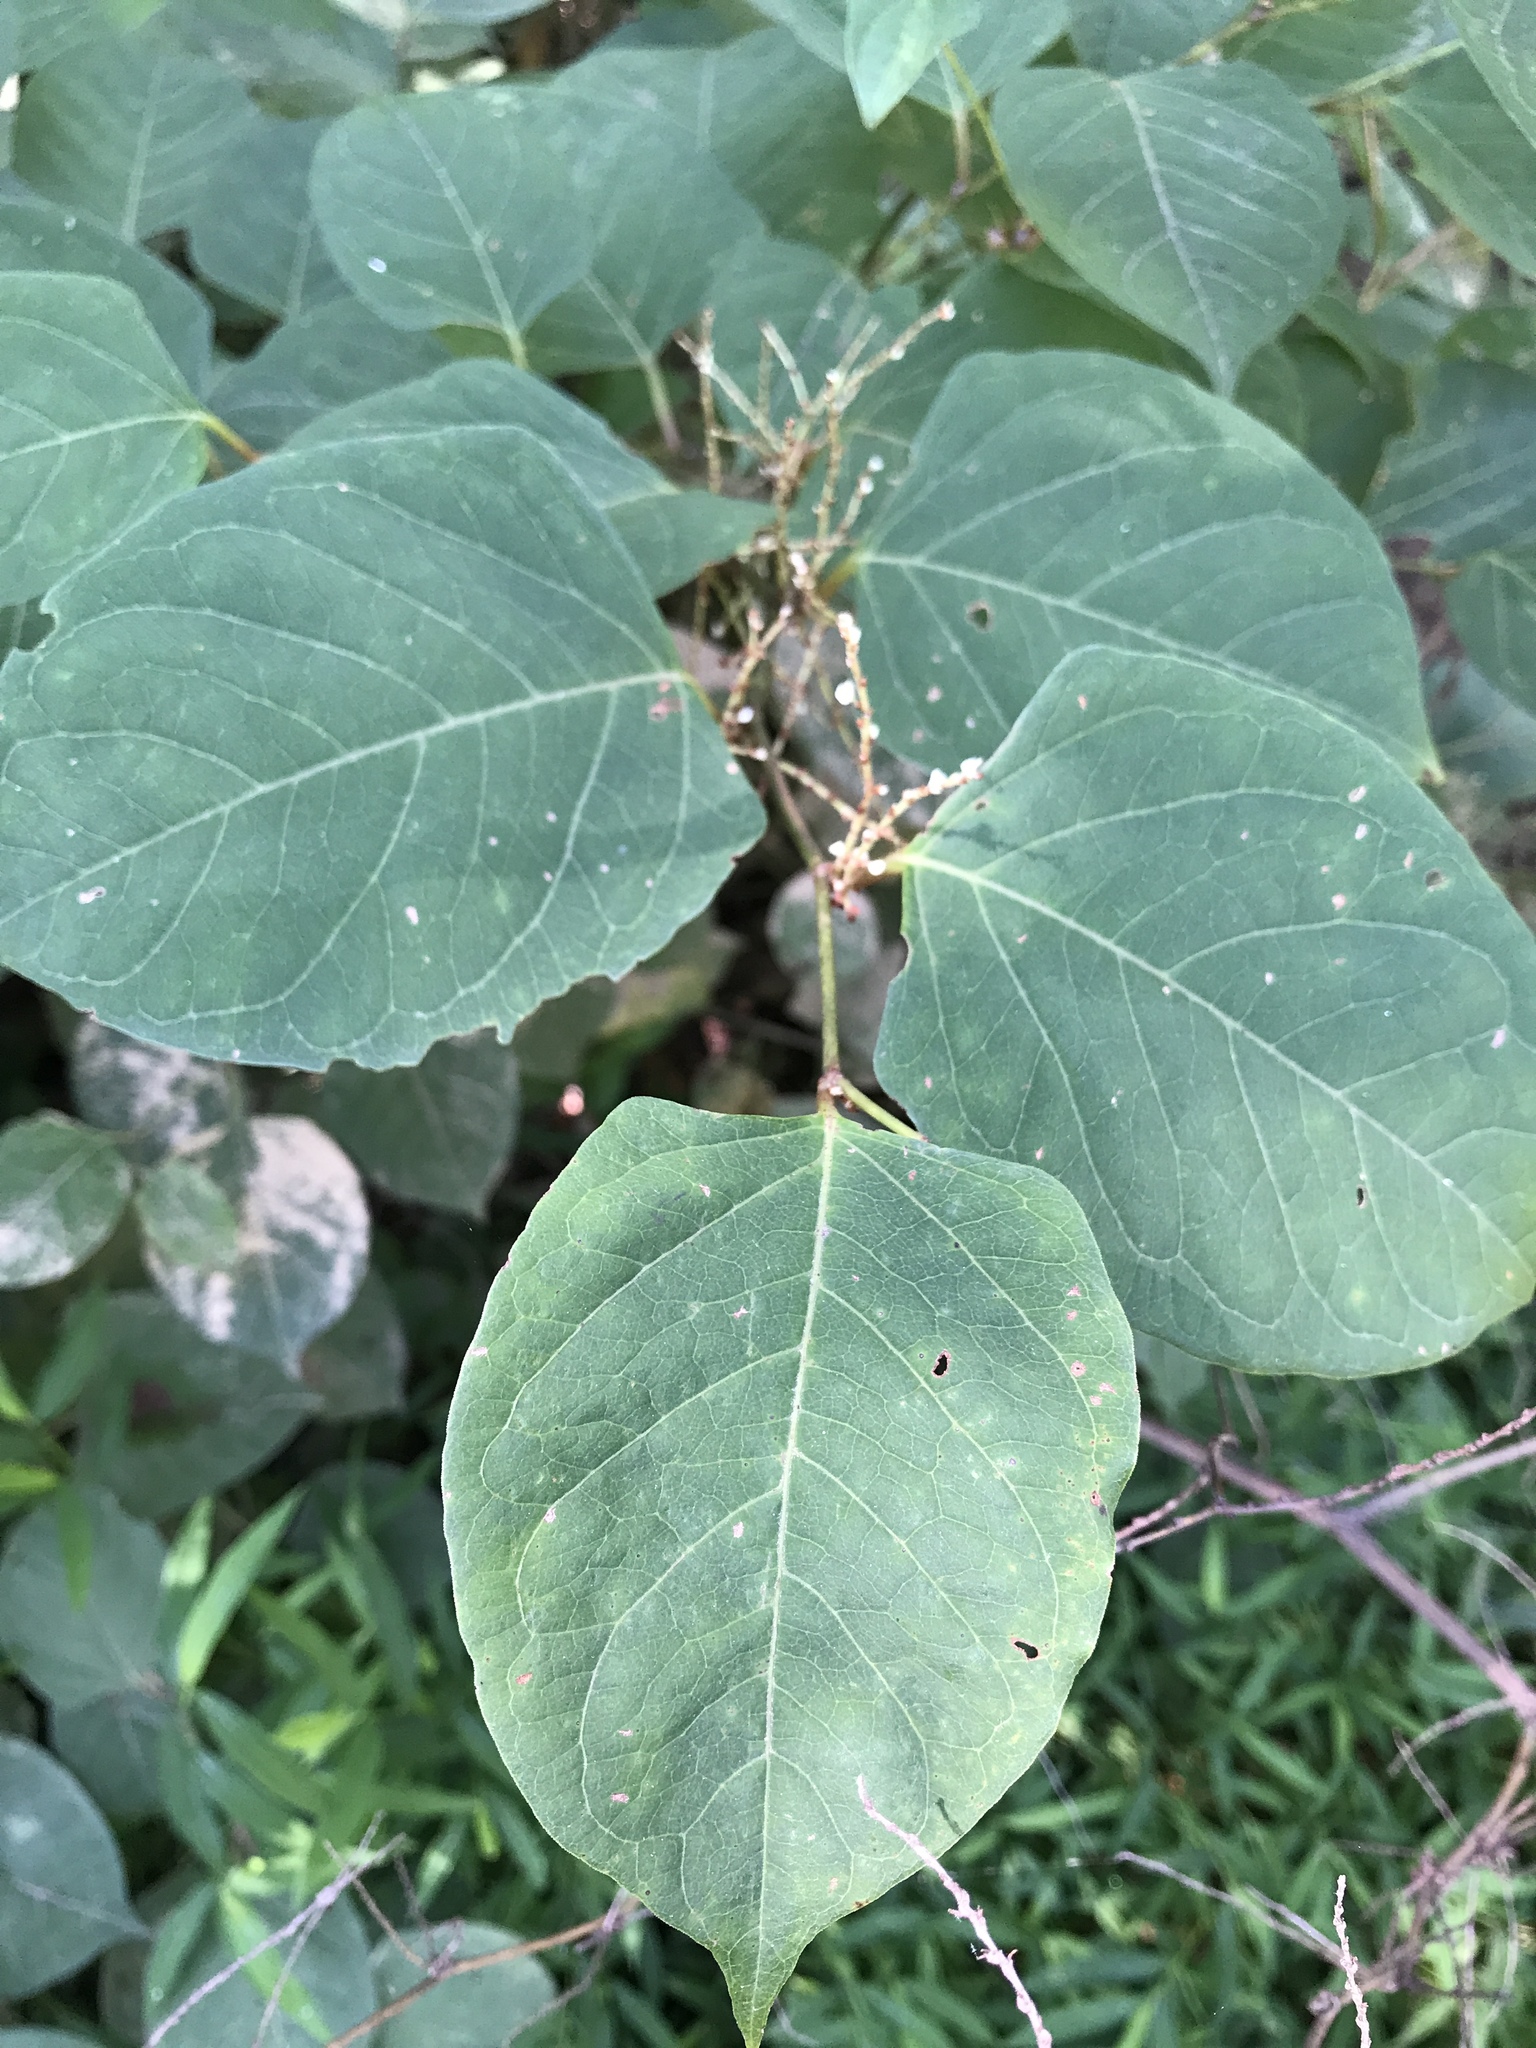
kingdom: Plantae
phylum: Tracheophyta
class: Magnoliopsida
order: Caryophyllales
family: Polygonaceae
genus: Reynoutria
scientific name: Reynoutria japonica
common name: Japanese knotweed
